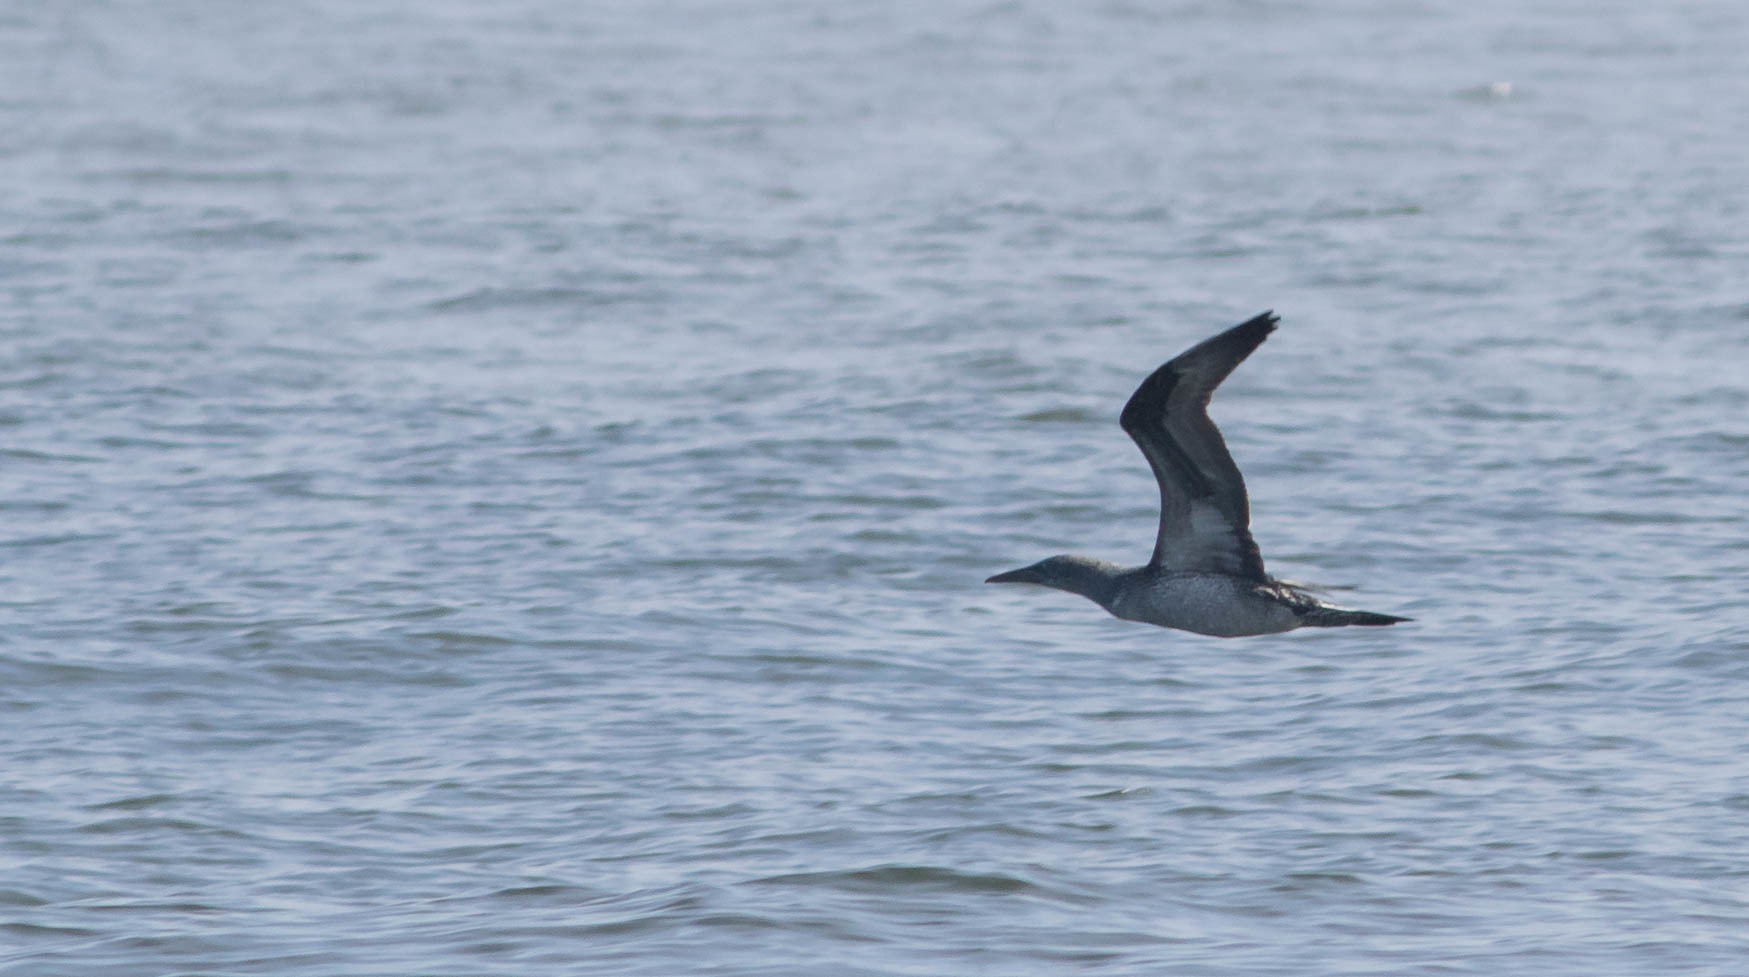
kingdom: Animalia
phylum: Chordata
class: Aves
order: Suliformes
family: Sulidae
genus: Morus
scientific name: Morus bassanus
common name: Northern gannet
